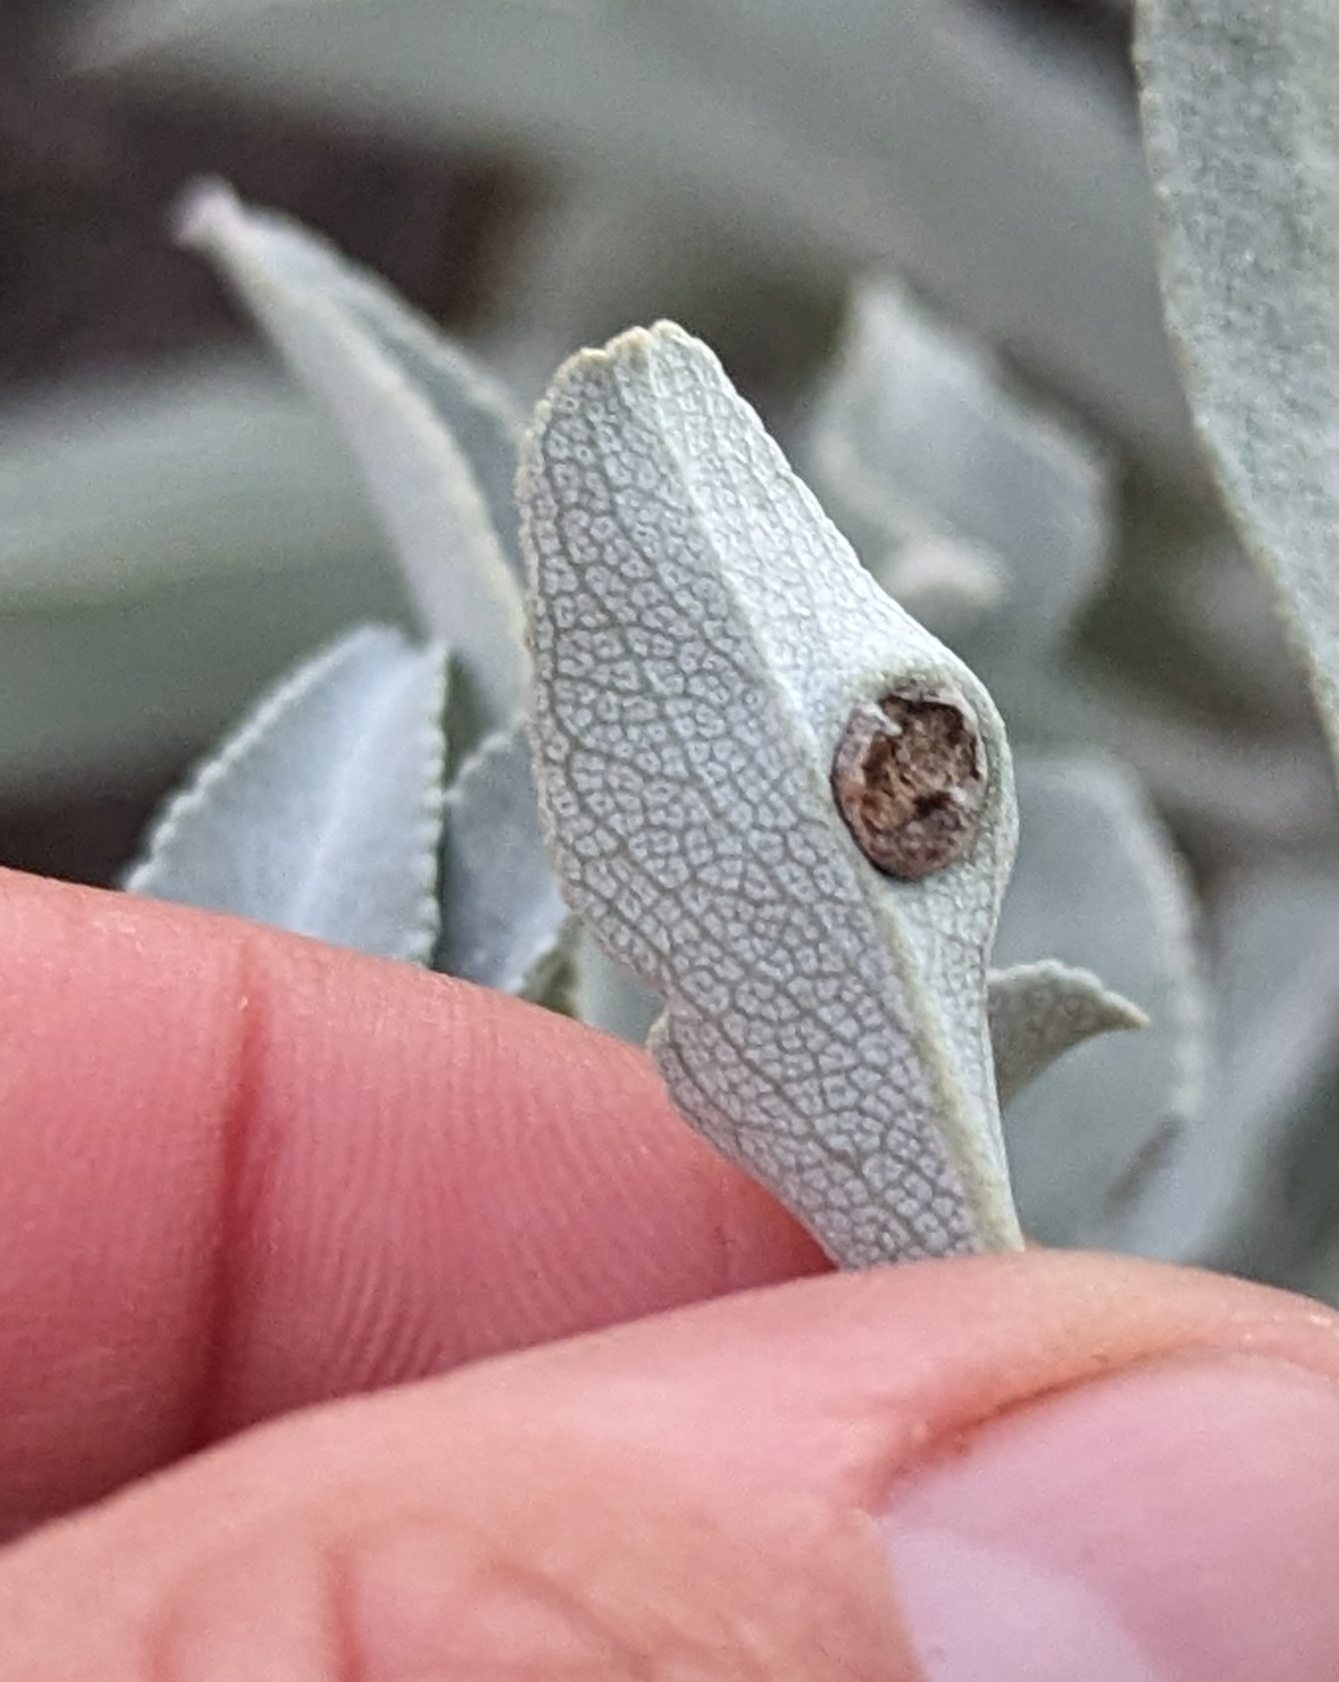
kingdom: Animalia
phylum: Arthropoda
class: Insecta
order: Diptera
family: Cecidomyiidae
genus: Rhopalomyia
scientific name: Rhopalomyia audibertiae
